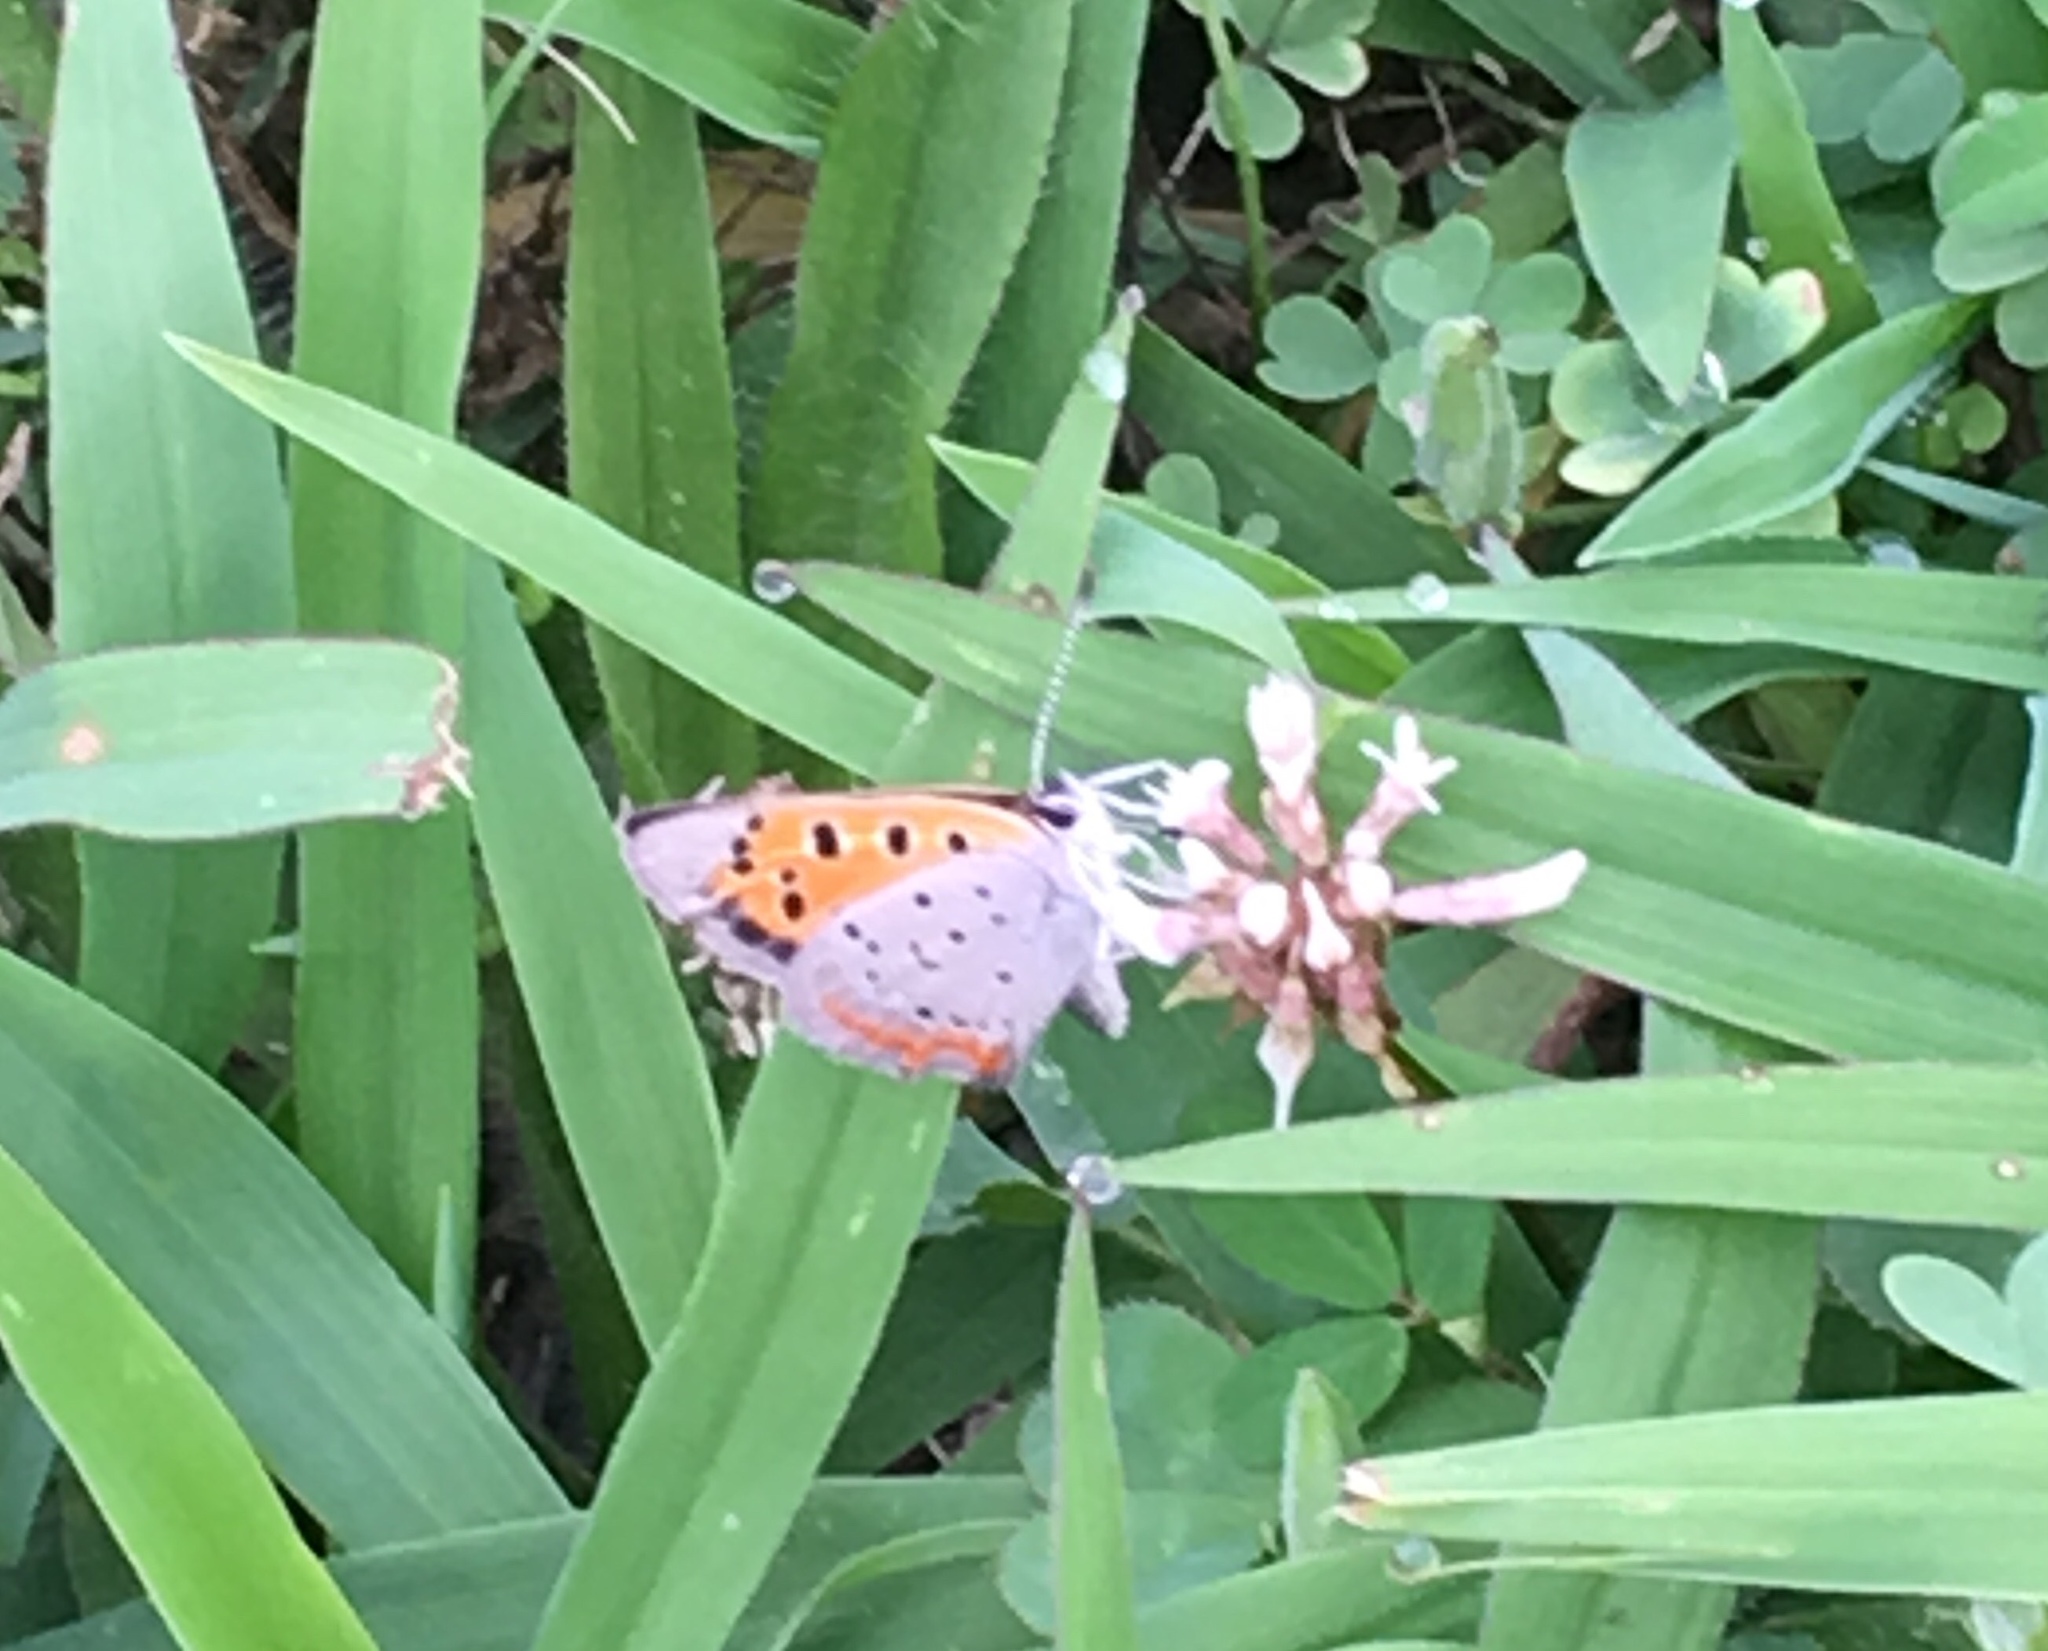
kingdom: Animalia
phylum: Arthropoda
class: Insecta
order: Lepidoptera
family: Lycaenidae
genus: Lycaena
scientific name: Lycaena hypophlaeas
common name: American copper
